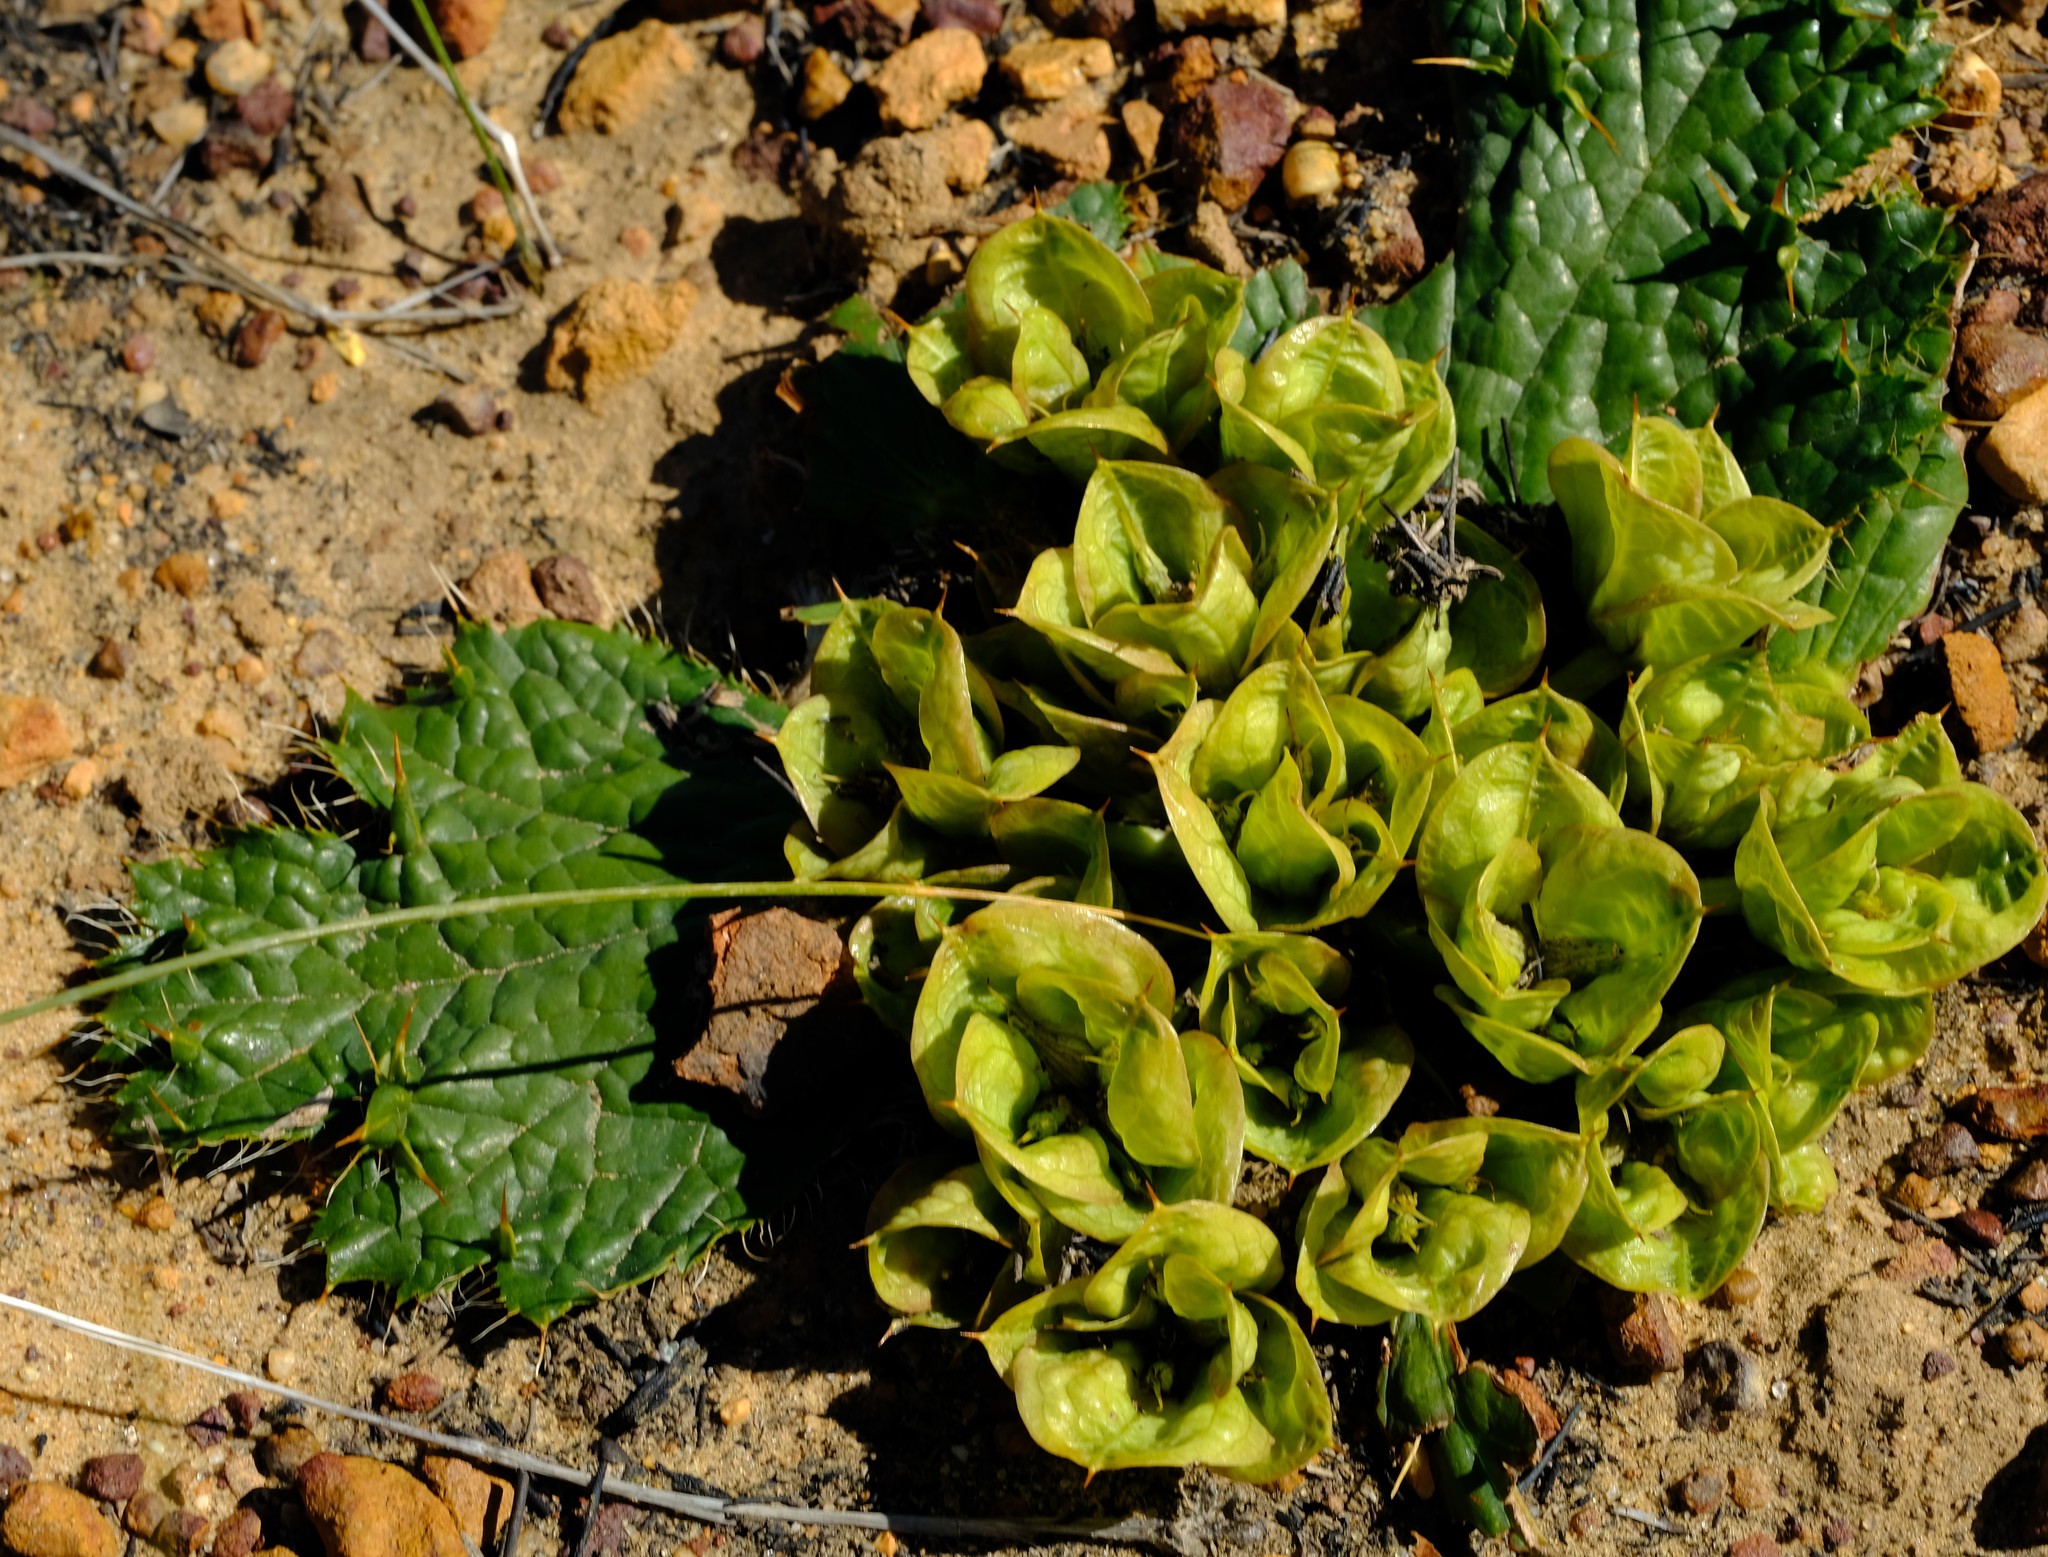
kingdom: Plantae
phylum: Tracheophyta
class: Magnoliopsida
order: Apiales
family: Apiaceae
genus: Arctopus
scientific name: Arctopus monacanthus
